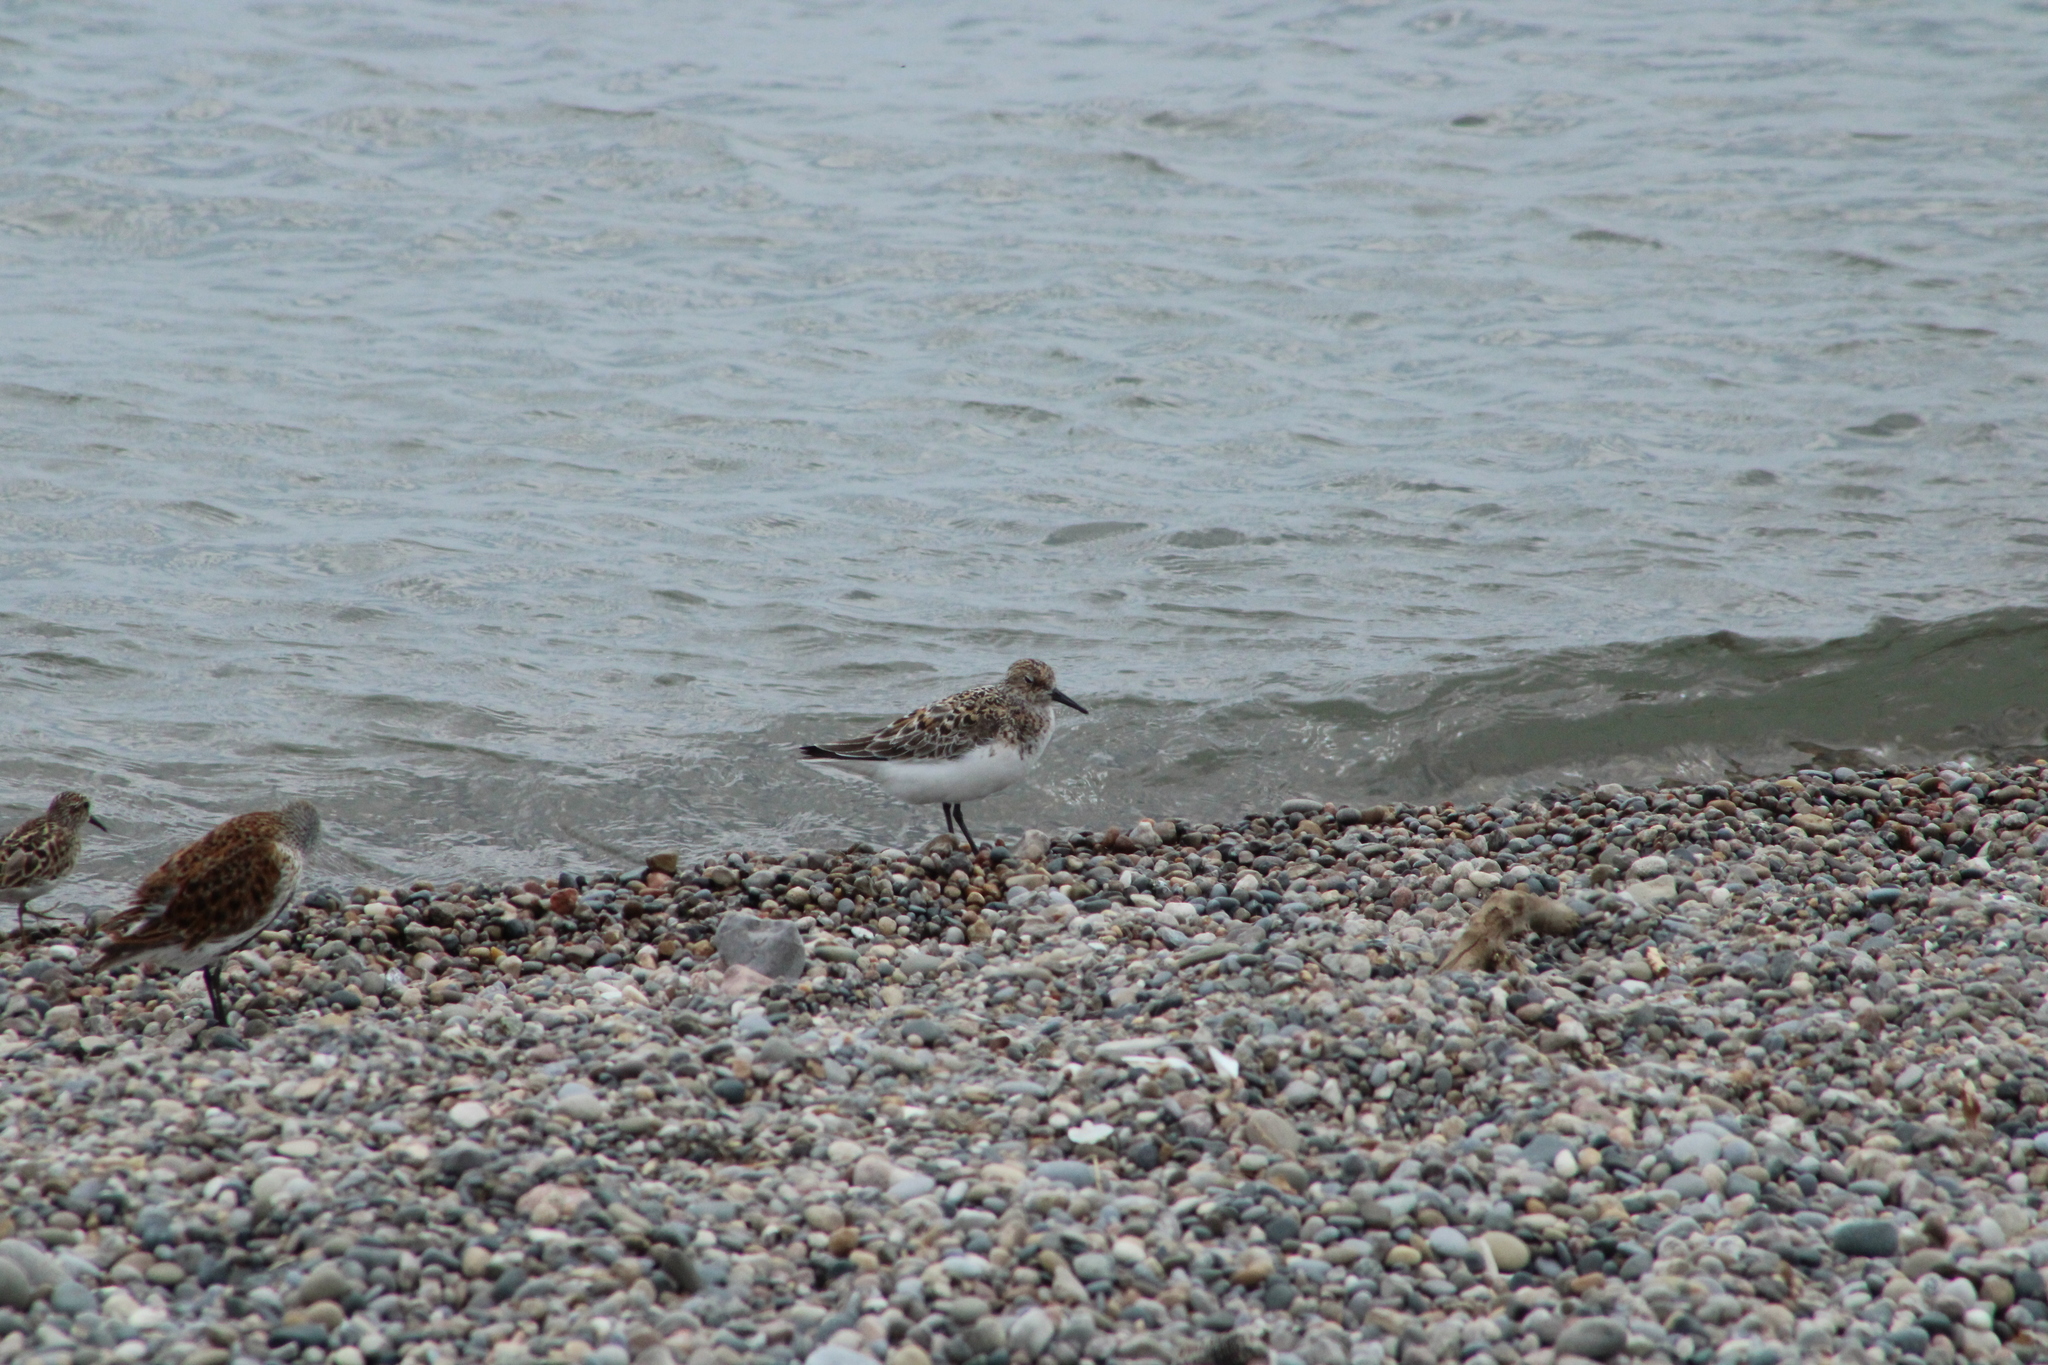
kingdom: Animalia
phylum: Chordata
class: Aves
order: Charadriiformes
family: Scolopacidae
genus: Calidris
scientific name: Calidris alba
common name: Sanderling
